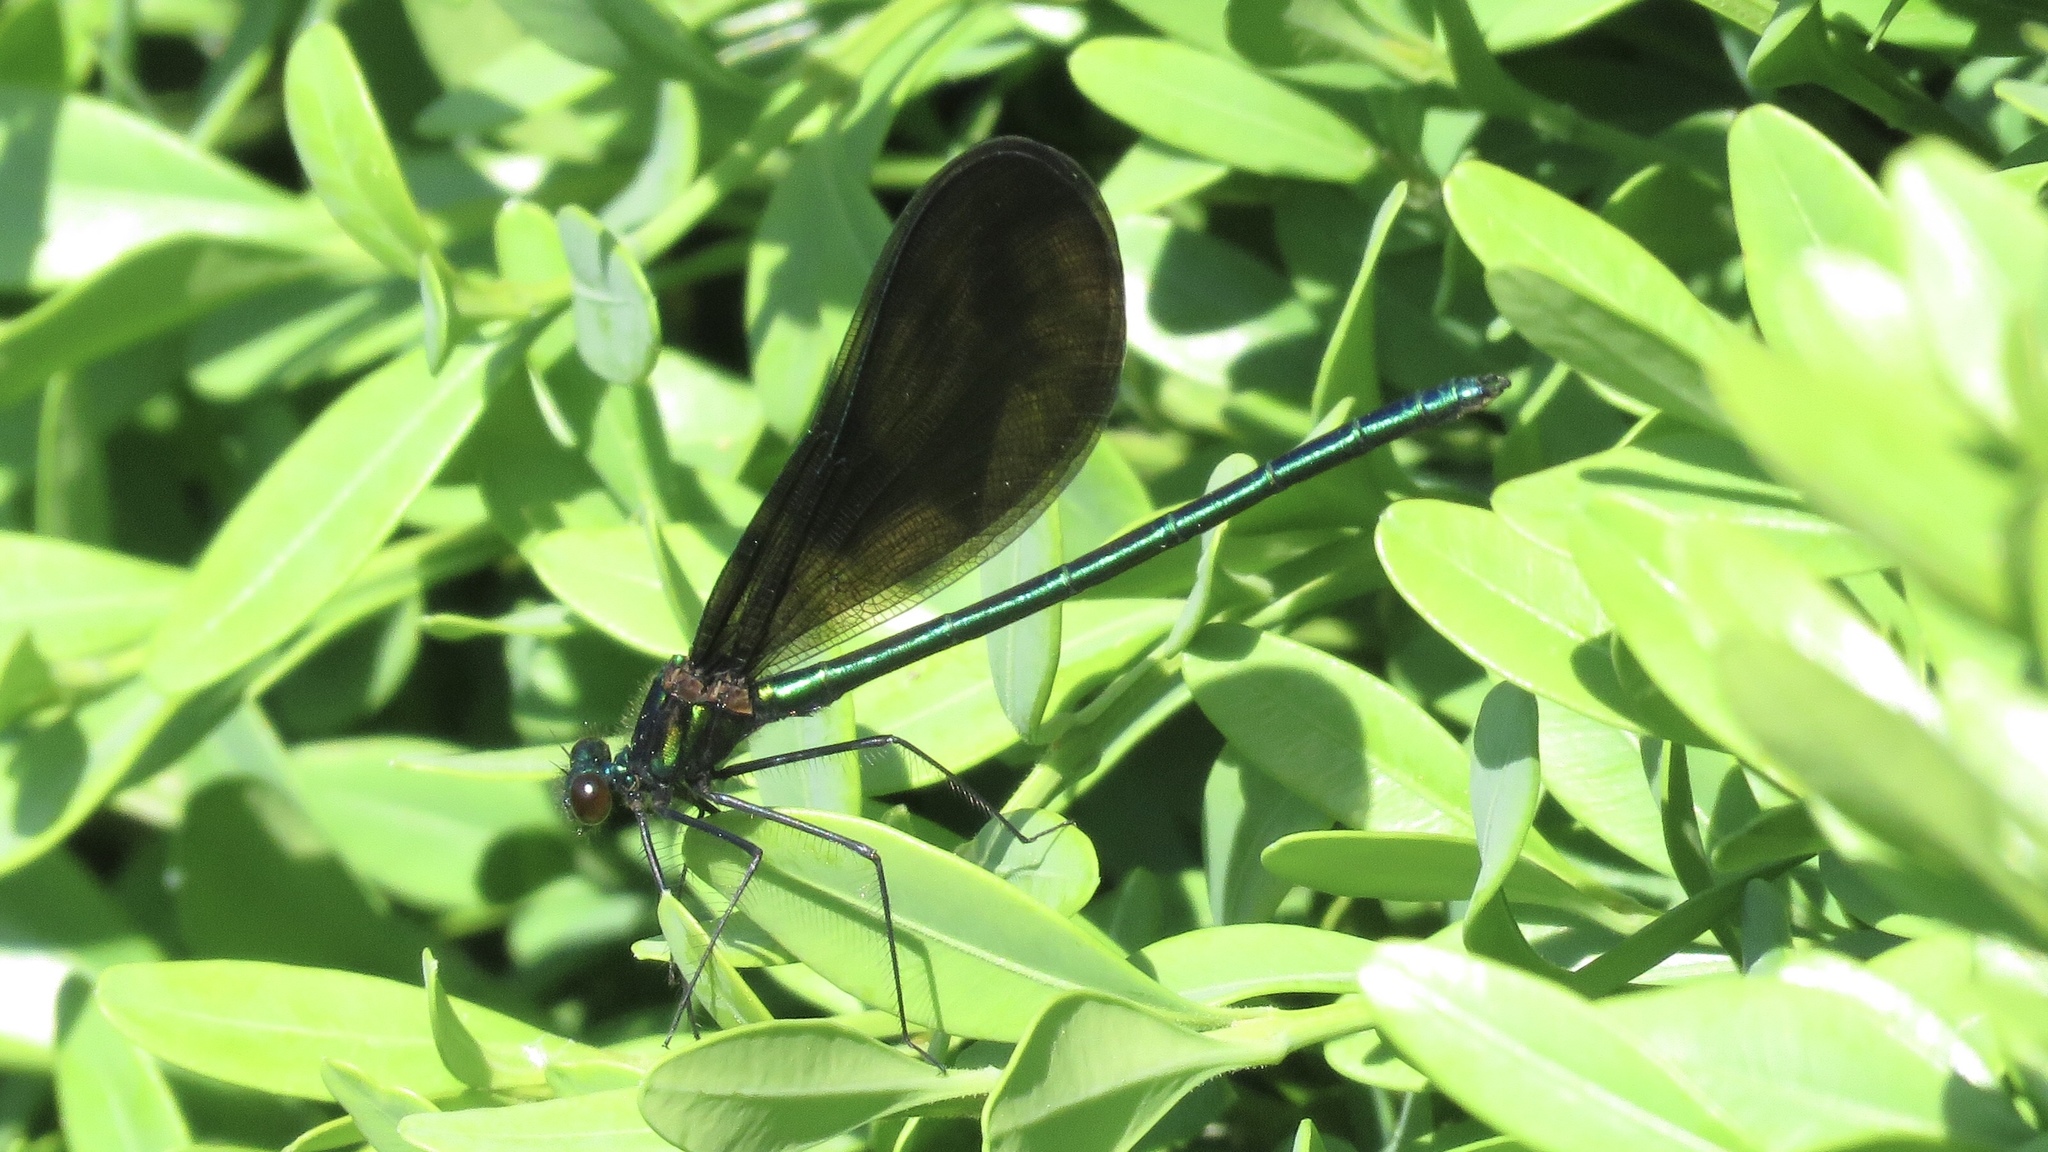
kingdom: Animalia
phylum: Arthropoda
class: Insecta
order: Odonata
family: Calopterygidae
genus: Calopteryx
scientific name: Calopteryx maculata
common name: Ebony jewelwing
